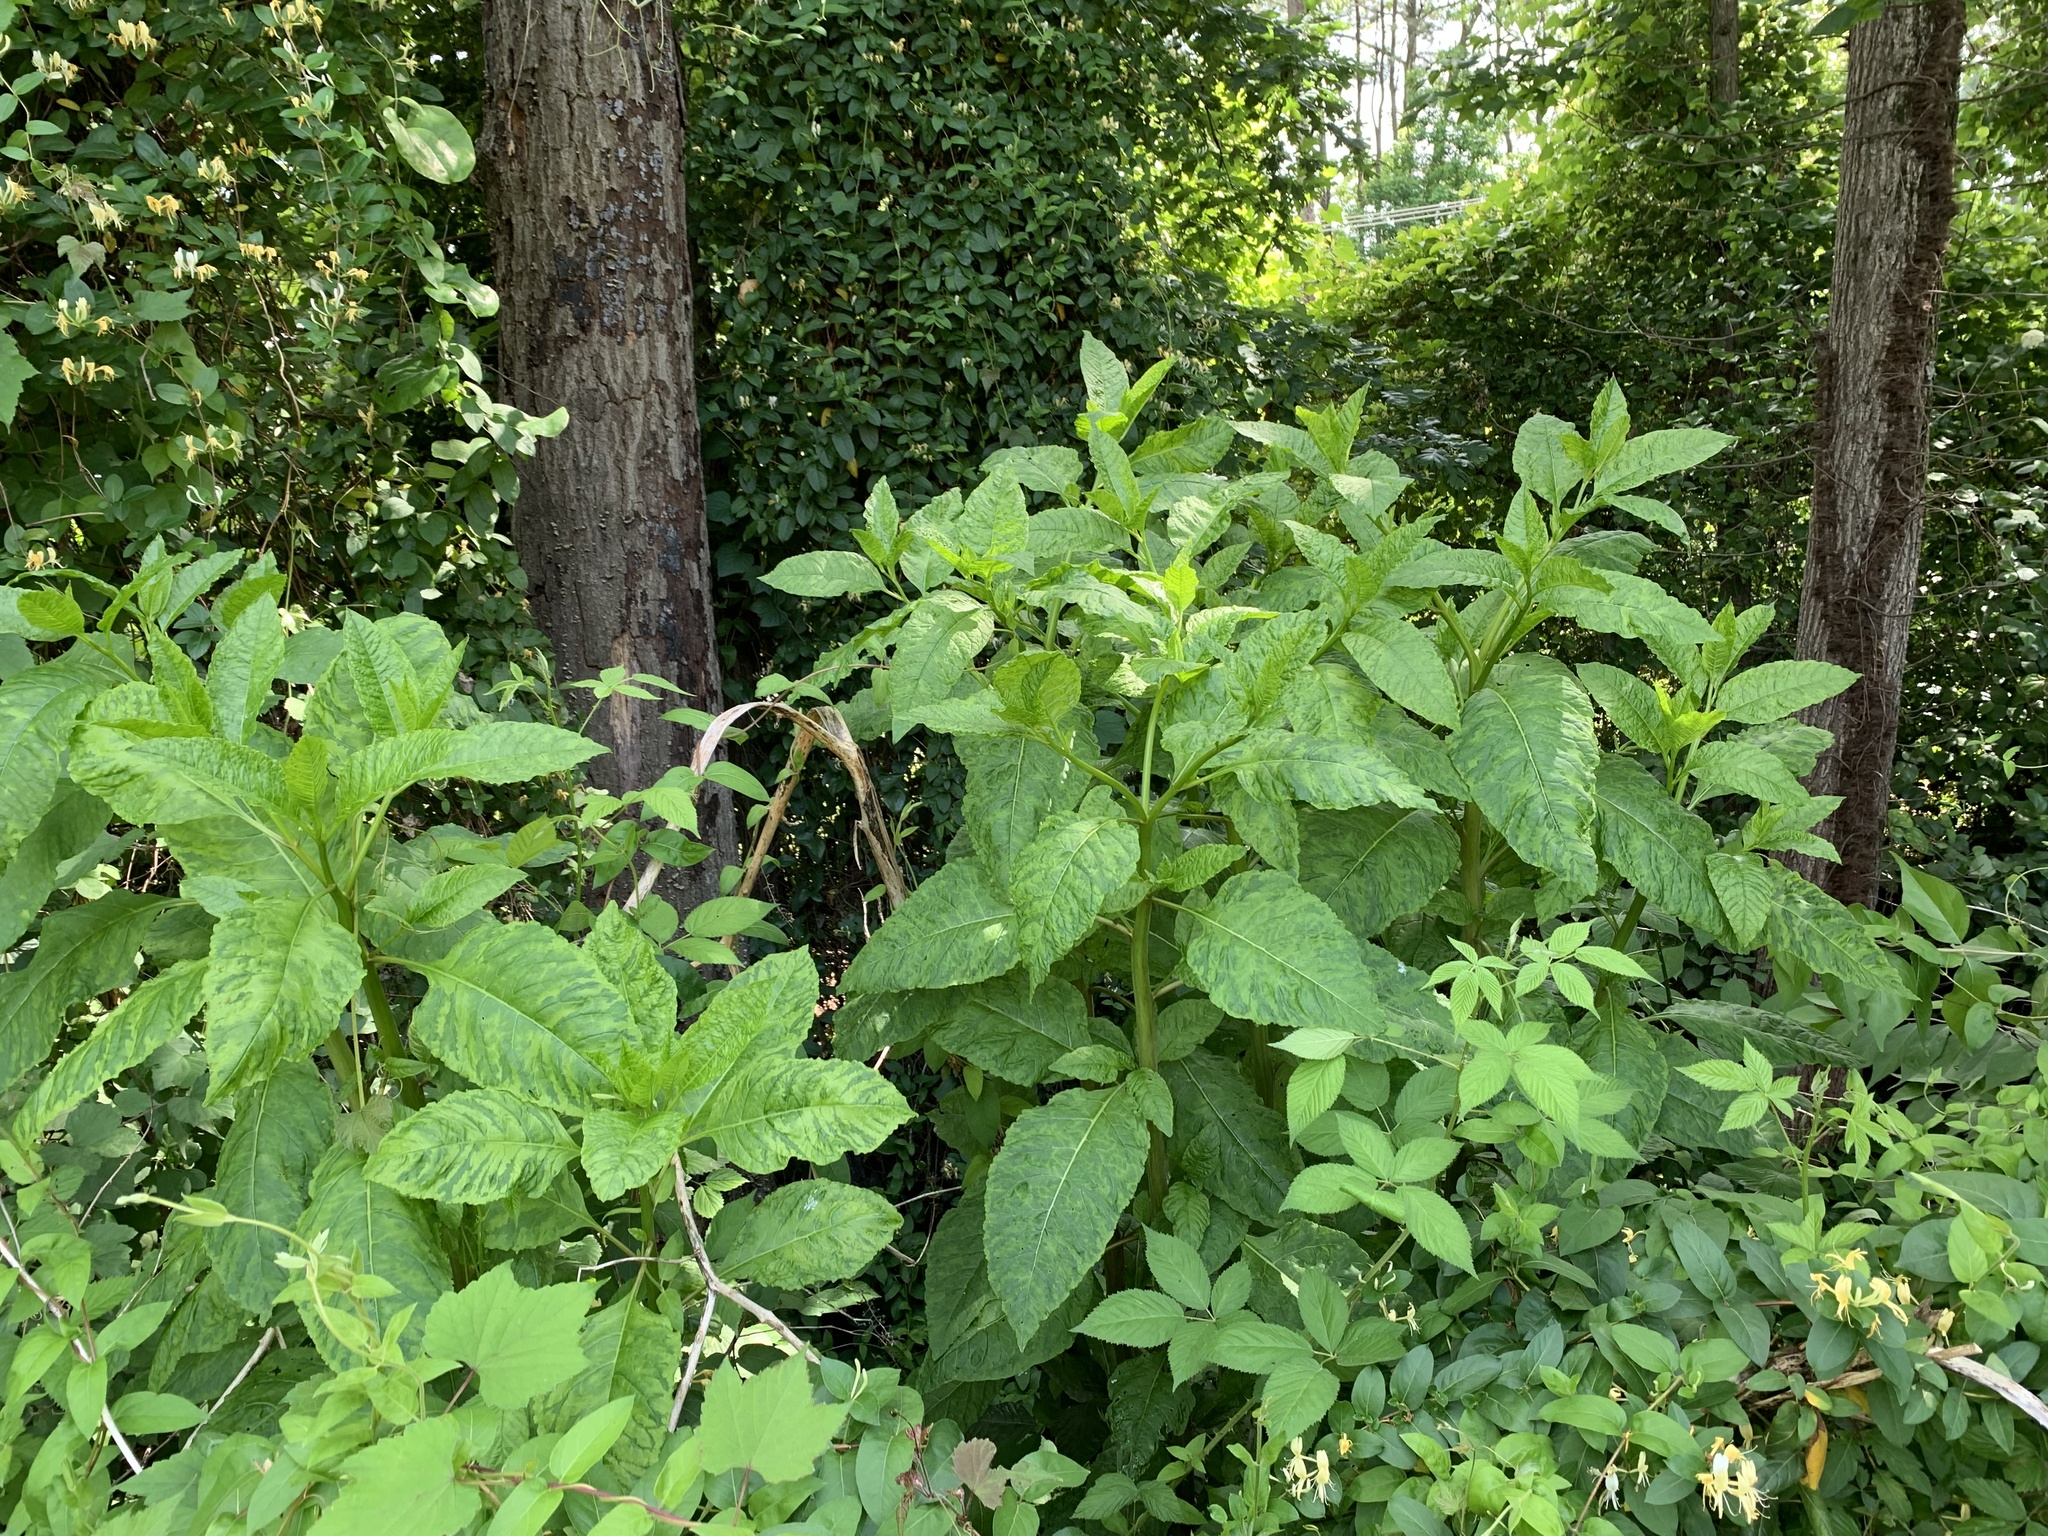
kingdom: Viruses
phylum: Pisuviricota
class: Stelpaviricetes
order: Patatavirales
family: Potyviridae
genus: Potyvirus
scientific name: Potyvirus Pokeweed mosaic virus
